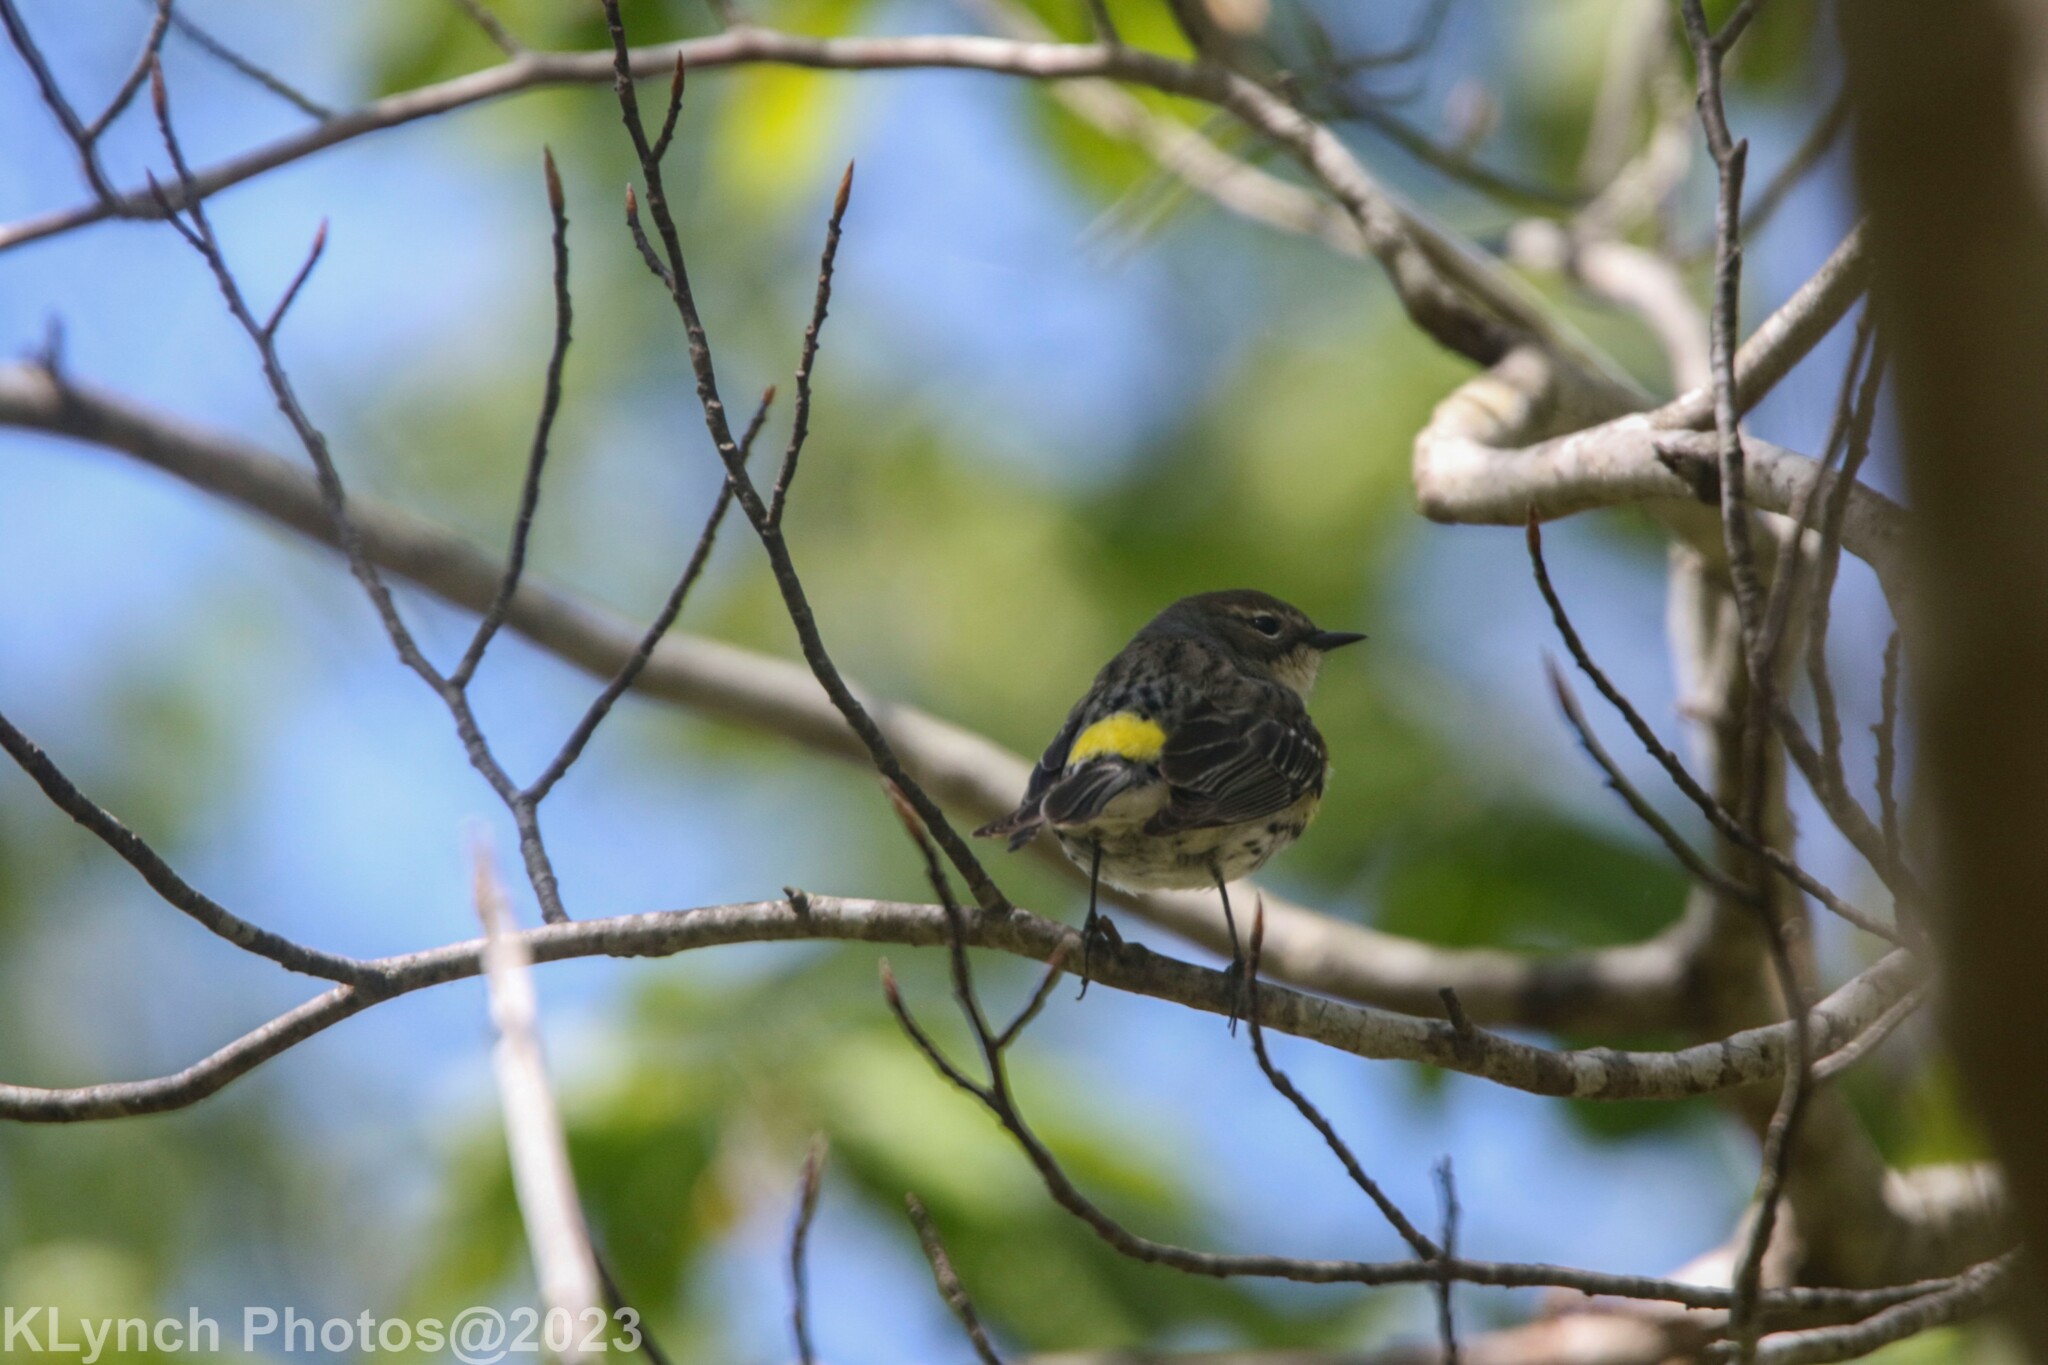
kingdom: Animalia
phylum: Chordata
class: Aves
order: Passeriformes
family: Parulidae
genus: Setophaga
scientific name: Setophaga coronata
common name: Myrtle warbler
